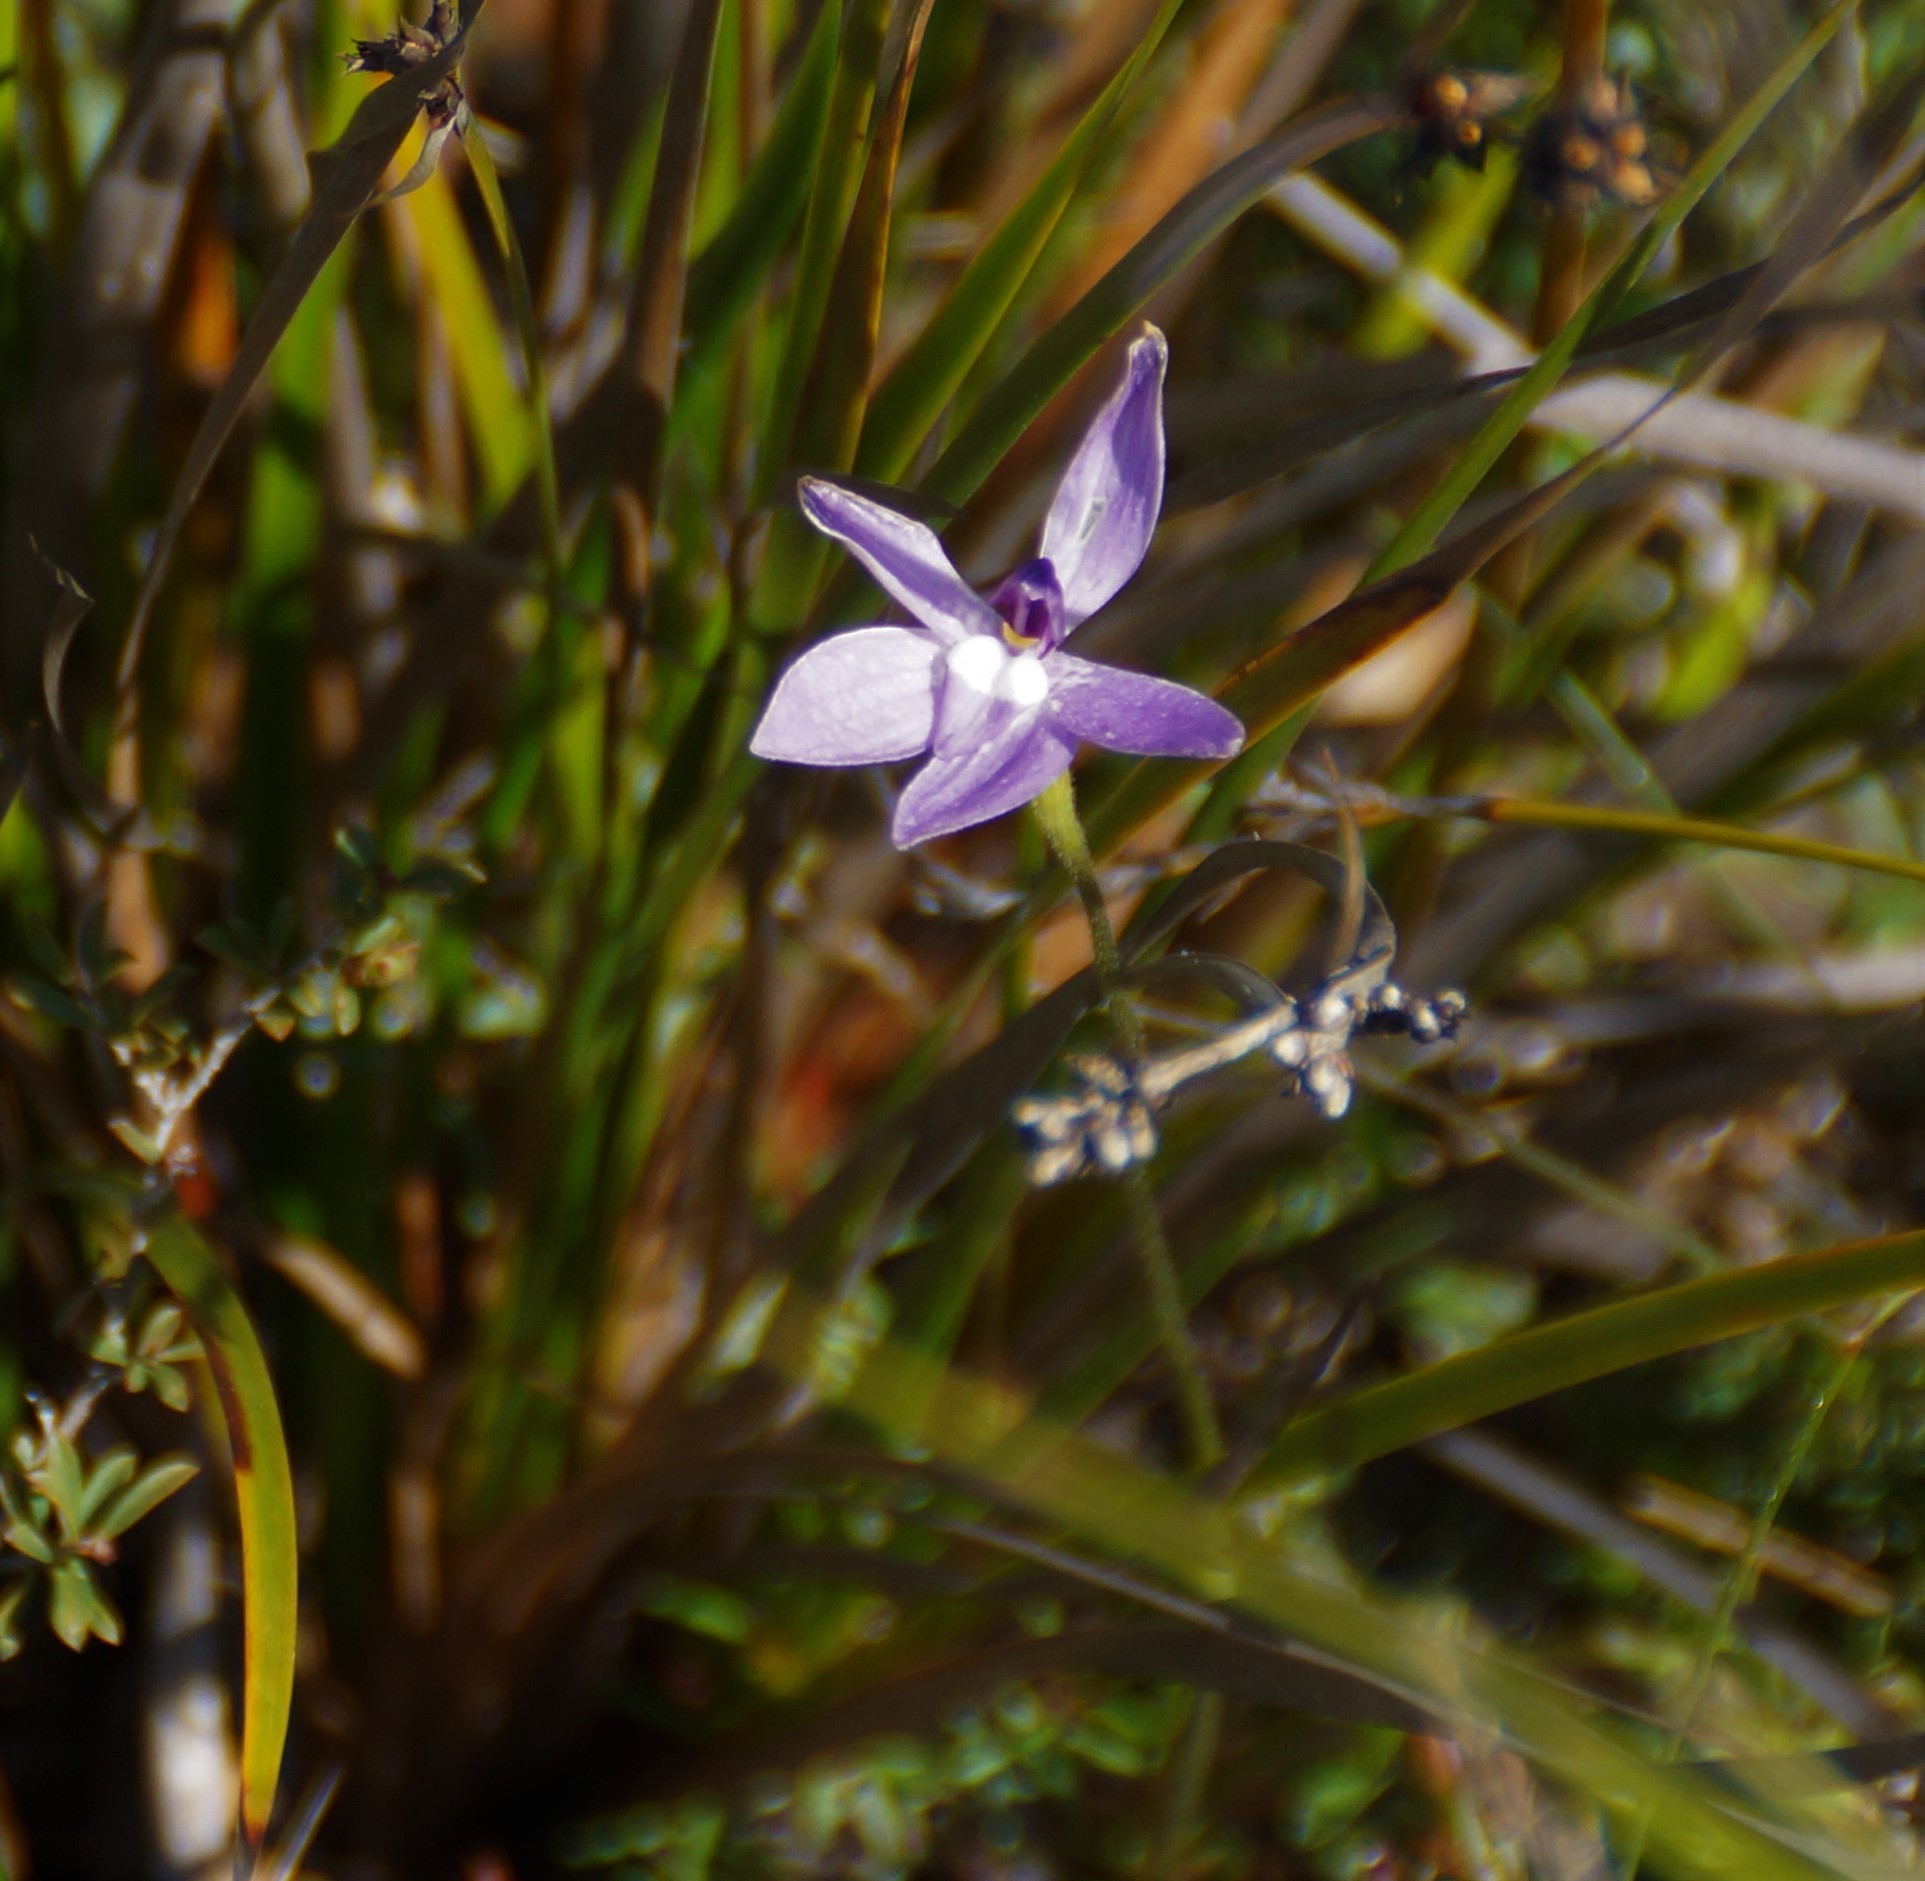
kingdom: Plantae
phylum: Tracheophyta
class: Liliopsida
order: Asparagales
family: Orchidaceae
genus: Caladenia
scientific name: Caladenia major
